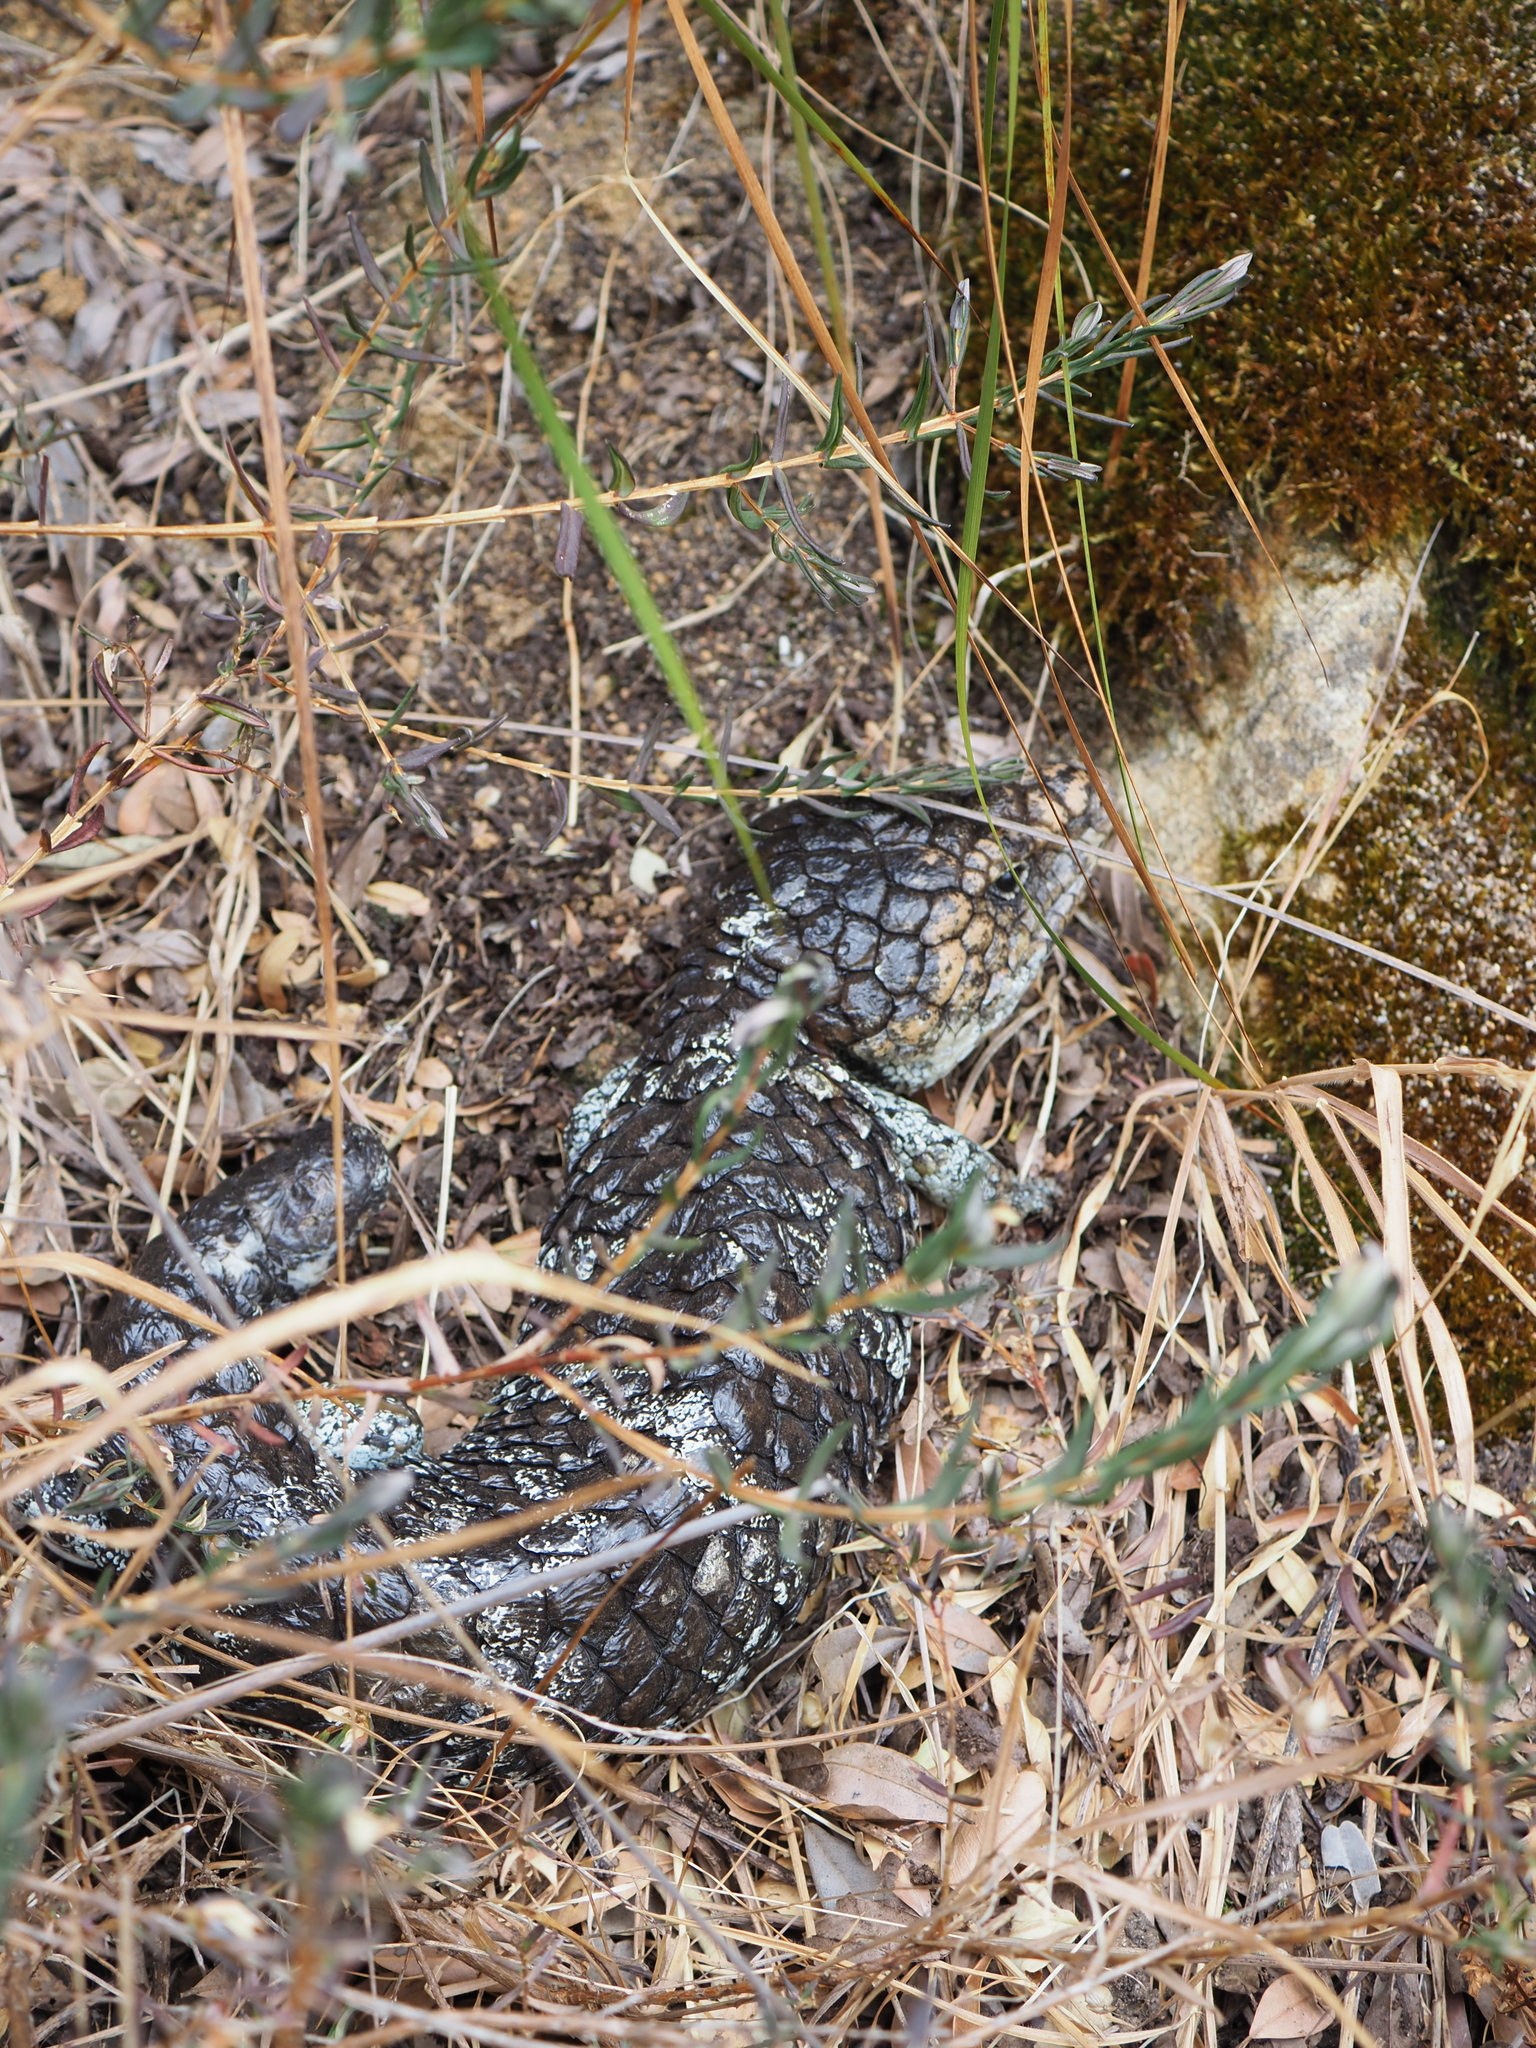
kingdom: Animalia
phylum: Chordata
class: Squamata
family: Scincidae
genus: Tiliqua
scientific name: Tiliqua rugosa
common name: Pinecone lizard
